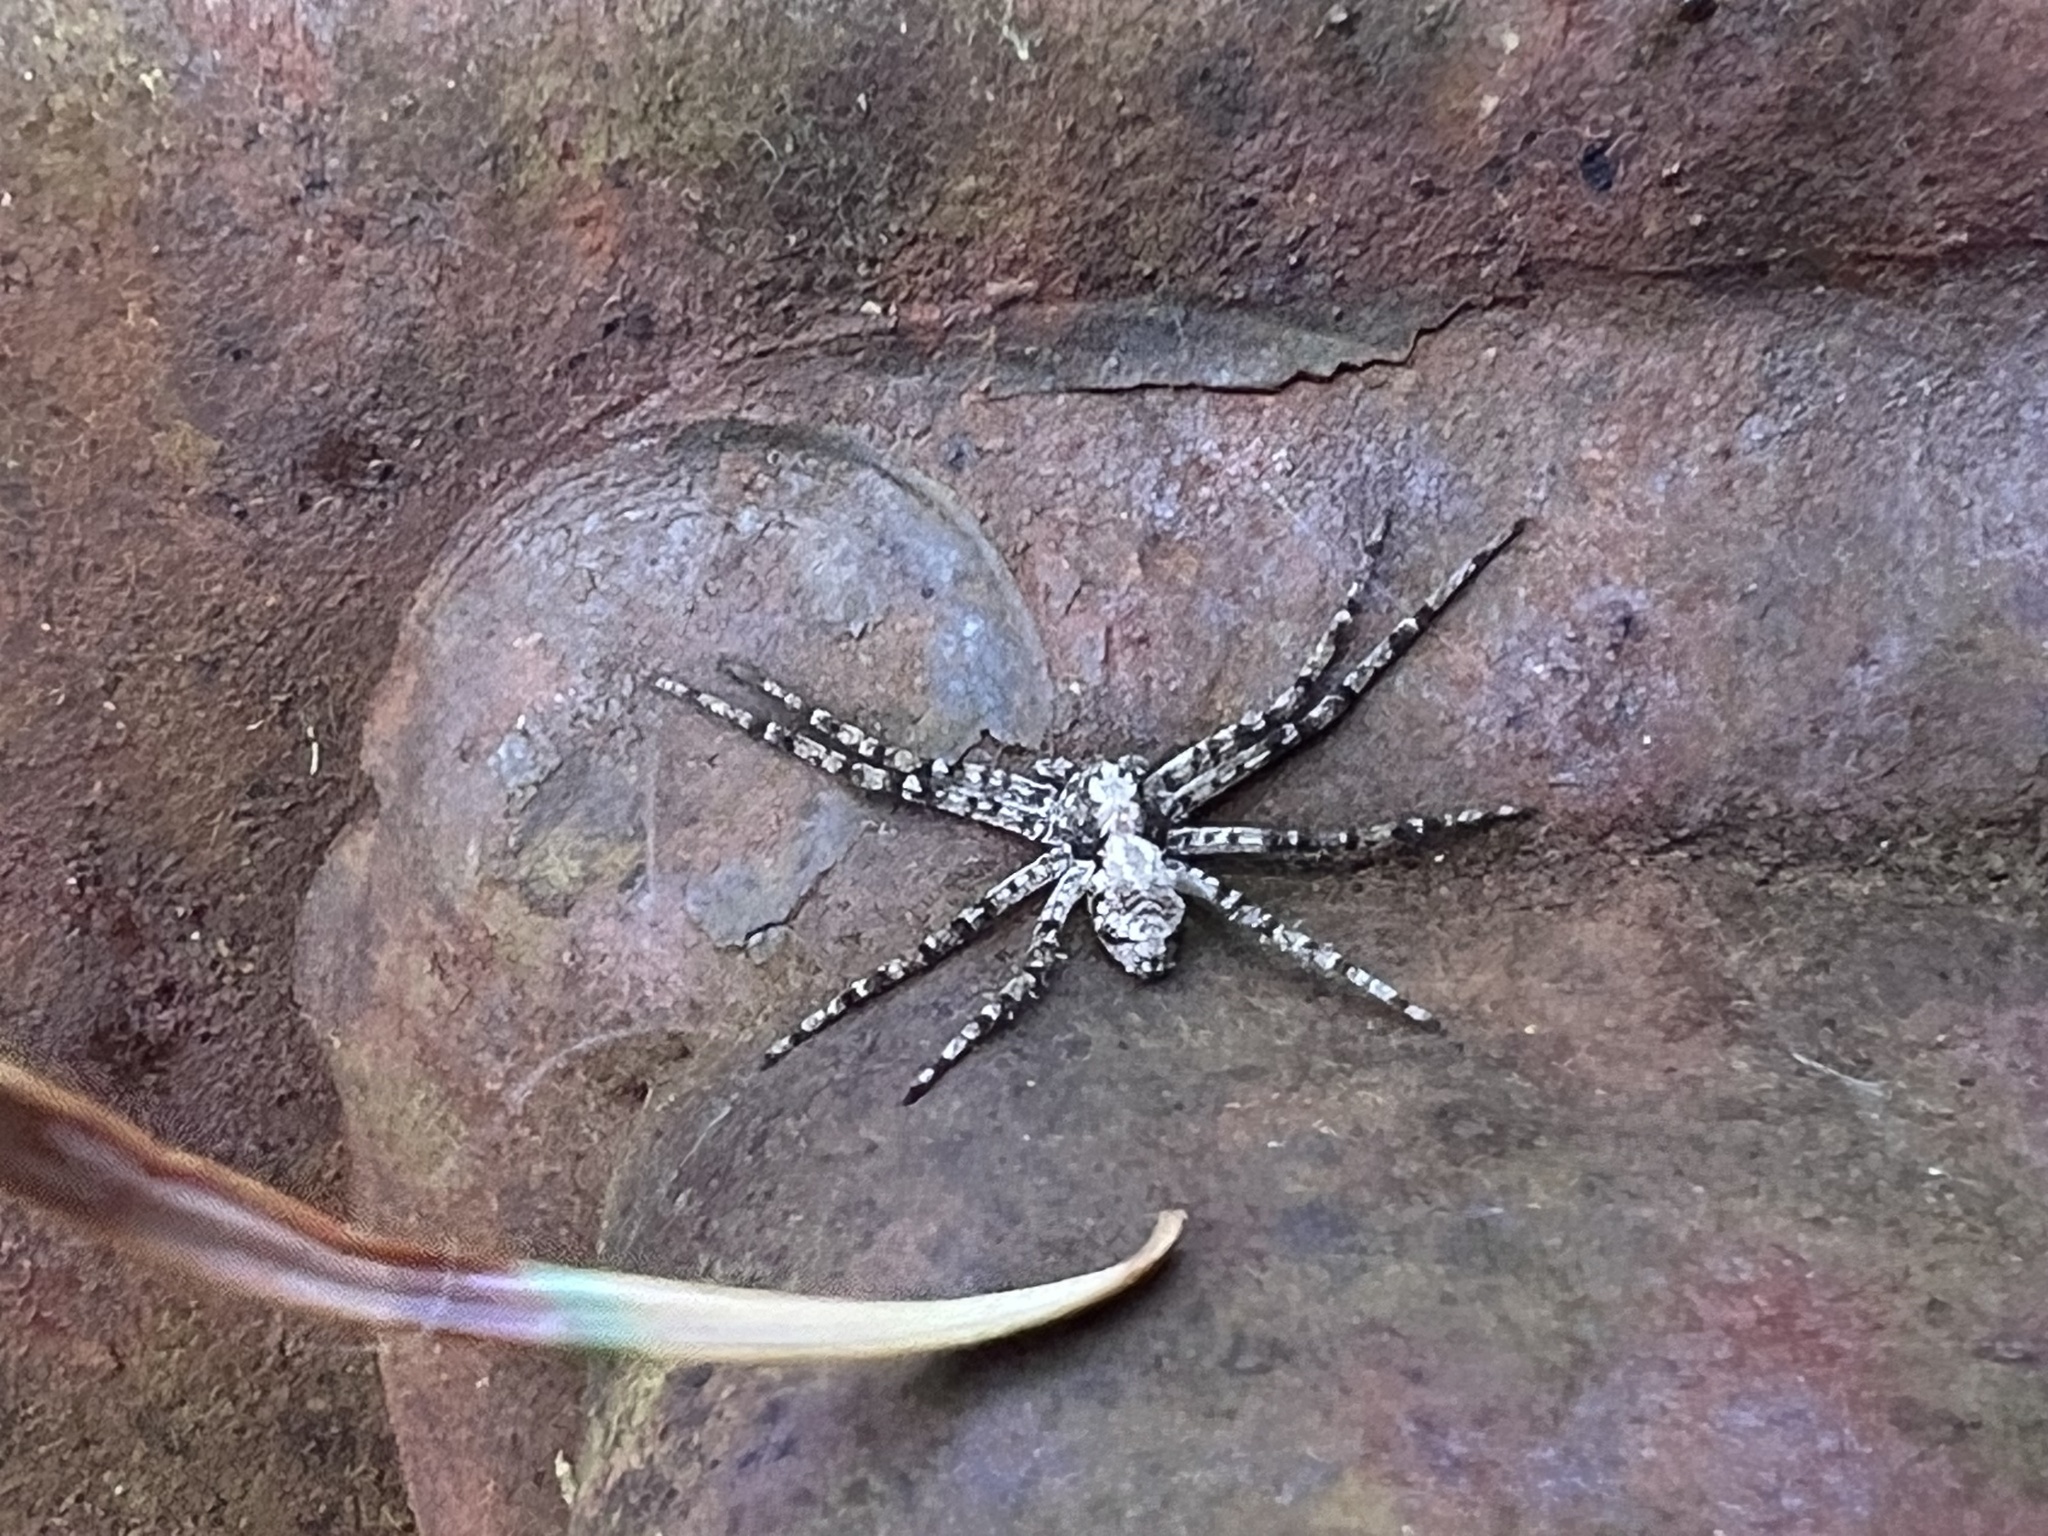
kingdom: Animalia
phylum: Arthropoda
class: Arachnida
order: Araneae
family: Philodromidae
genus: Philodromus
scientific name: Philodromus spectabilis
